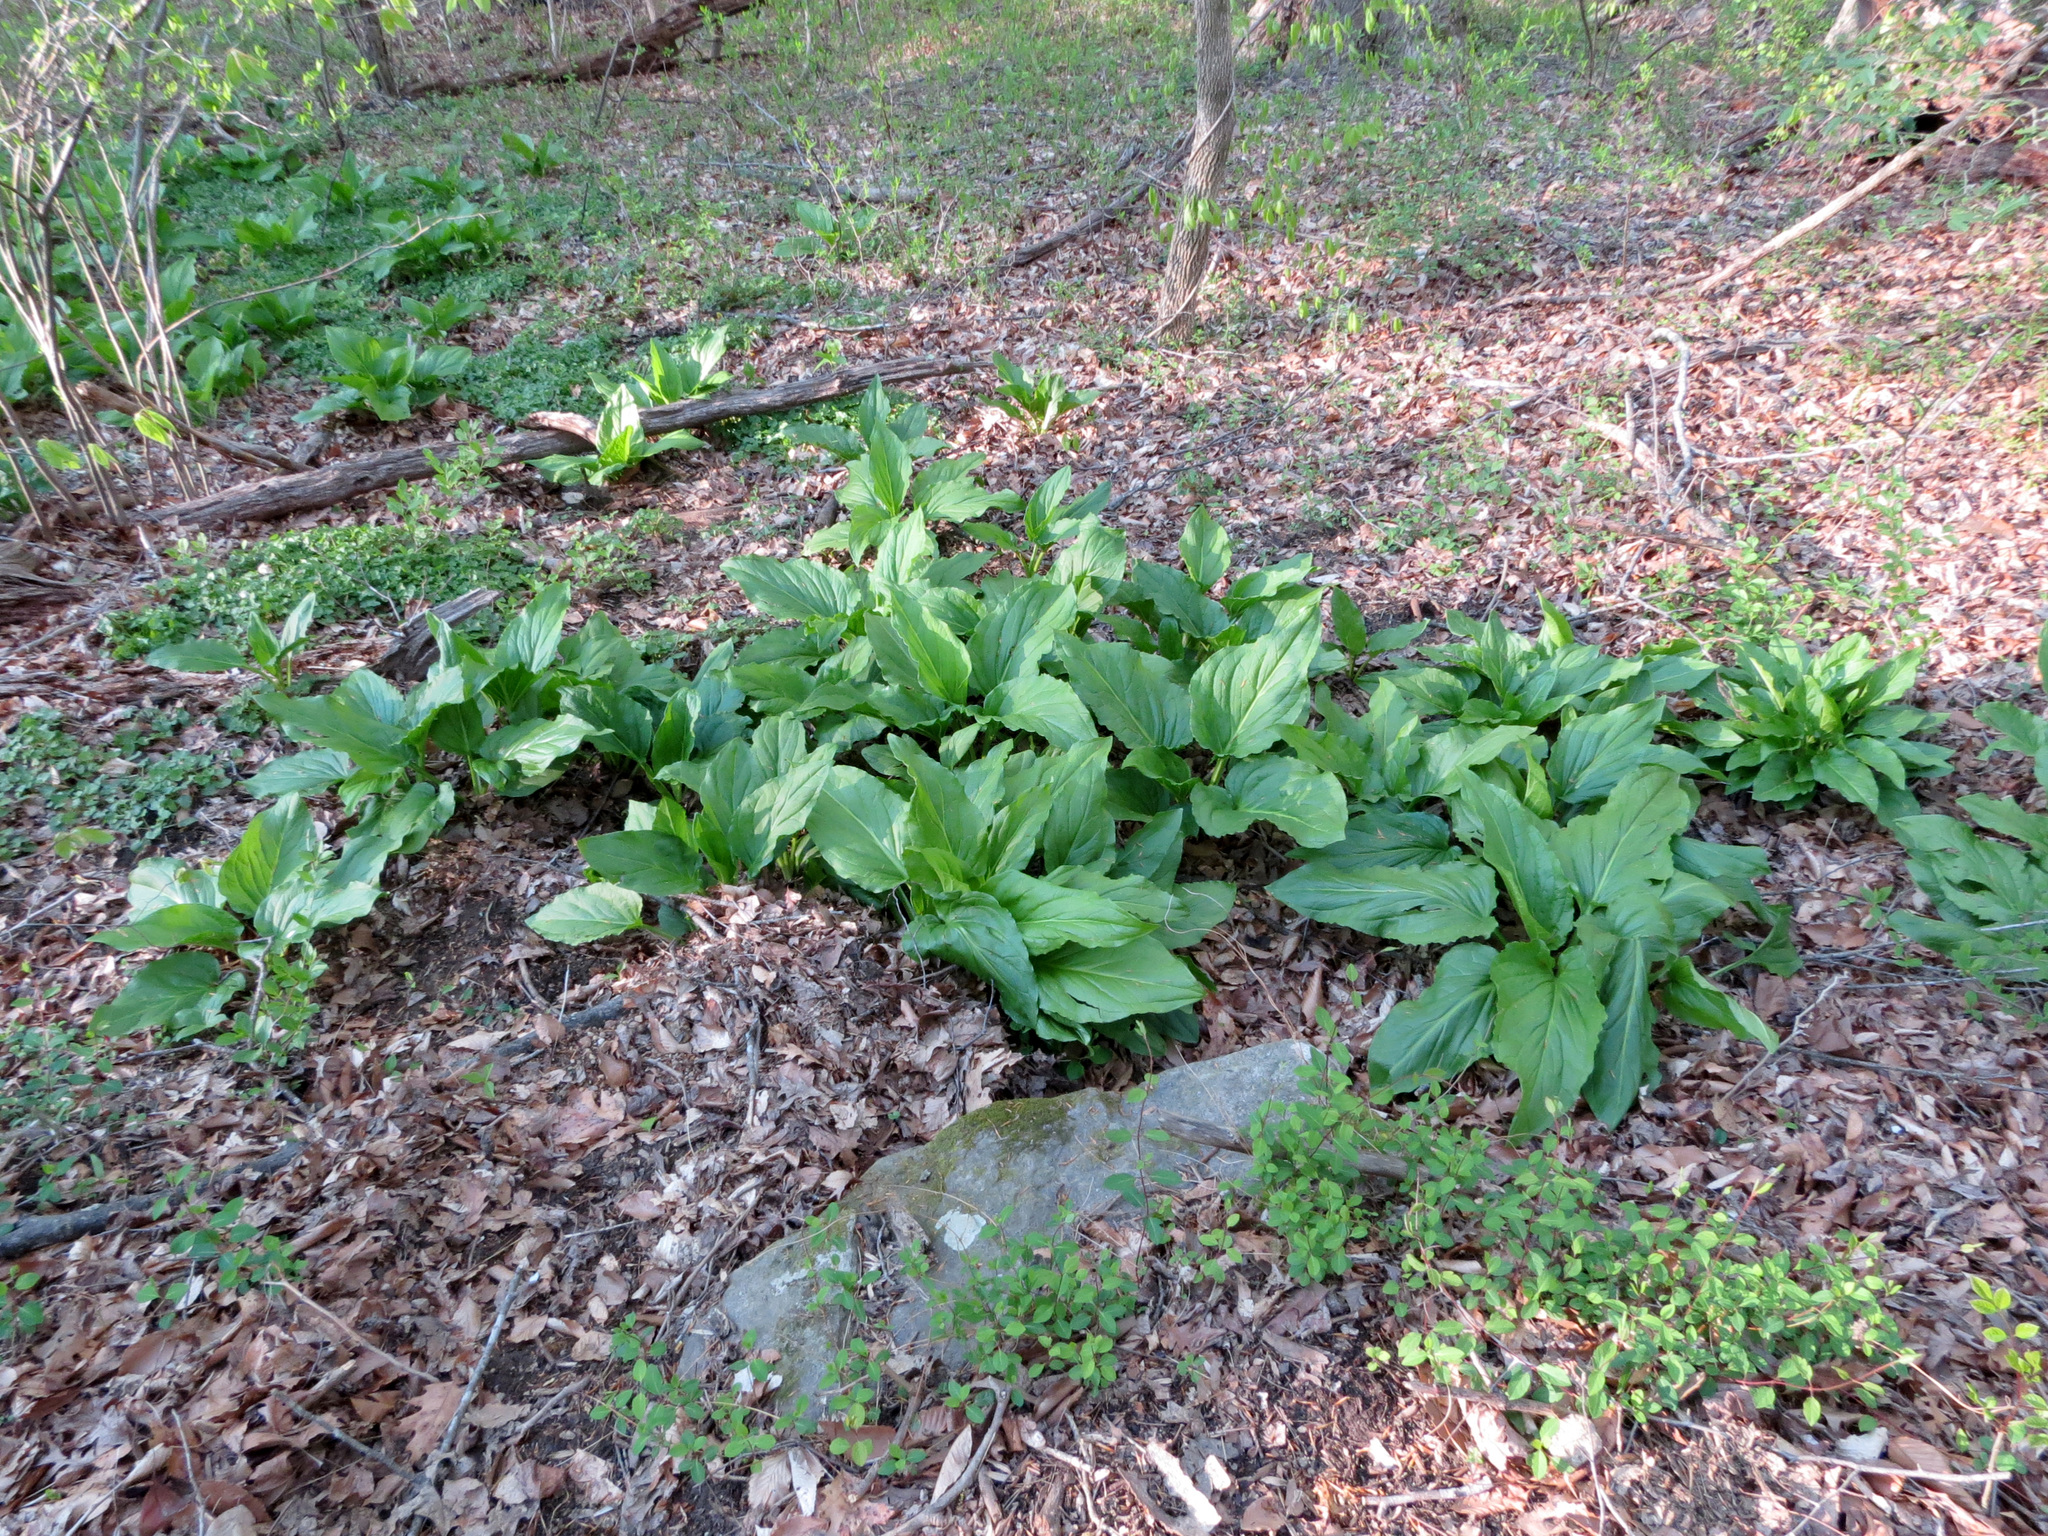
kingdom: Plantae
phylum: Tracheophyta
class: Liliopsida
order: Alismatales
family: Araceae
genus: Symplocarpus
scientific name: Symplocarpus foetidus
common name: Eastern skunk cabbage
